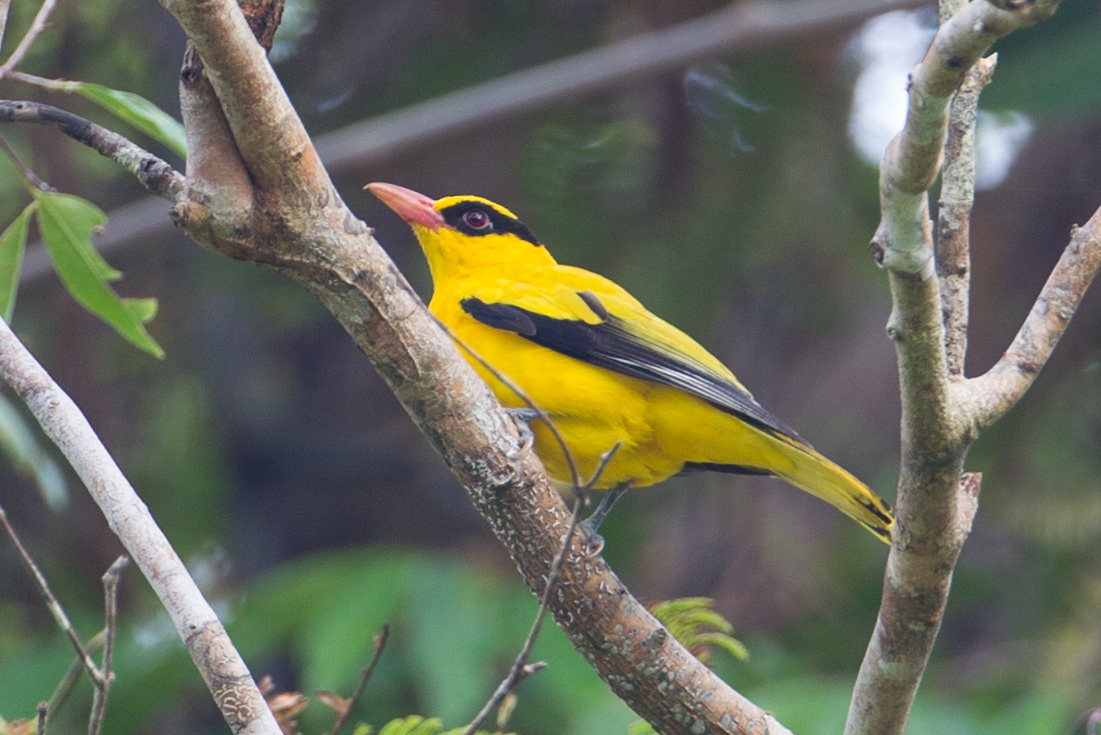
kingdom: Animalia
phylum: Chordata
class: Aves
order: Passeriformes
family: Oriolidae
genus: Oriolus
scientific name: Oriolus chinensis
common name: Black-naped oriole
